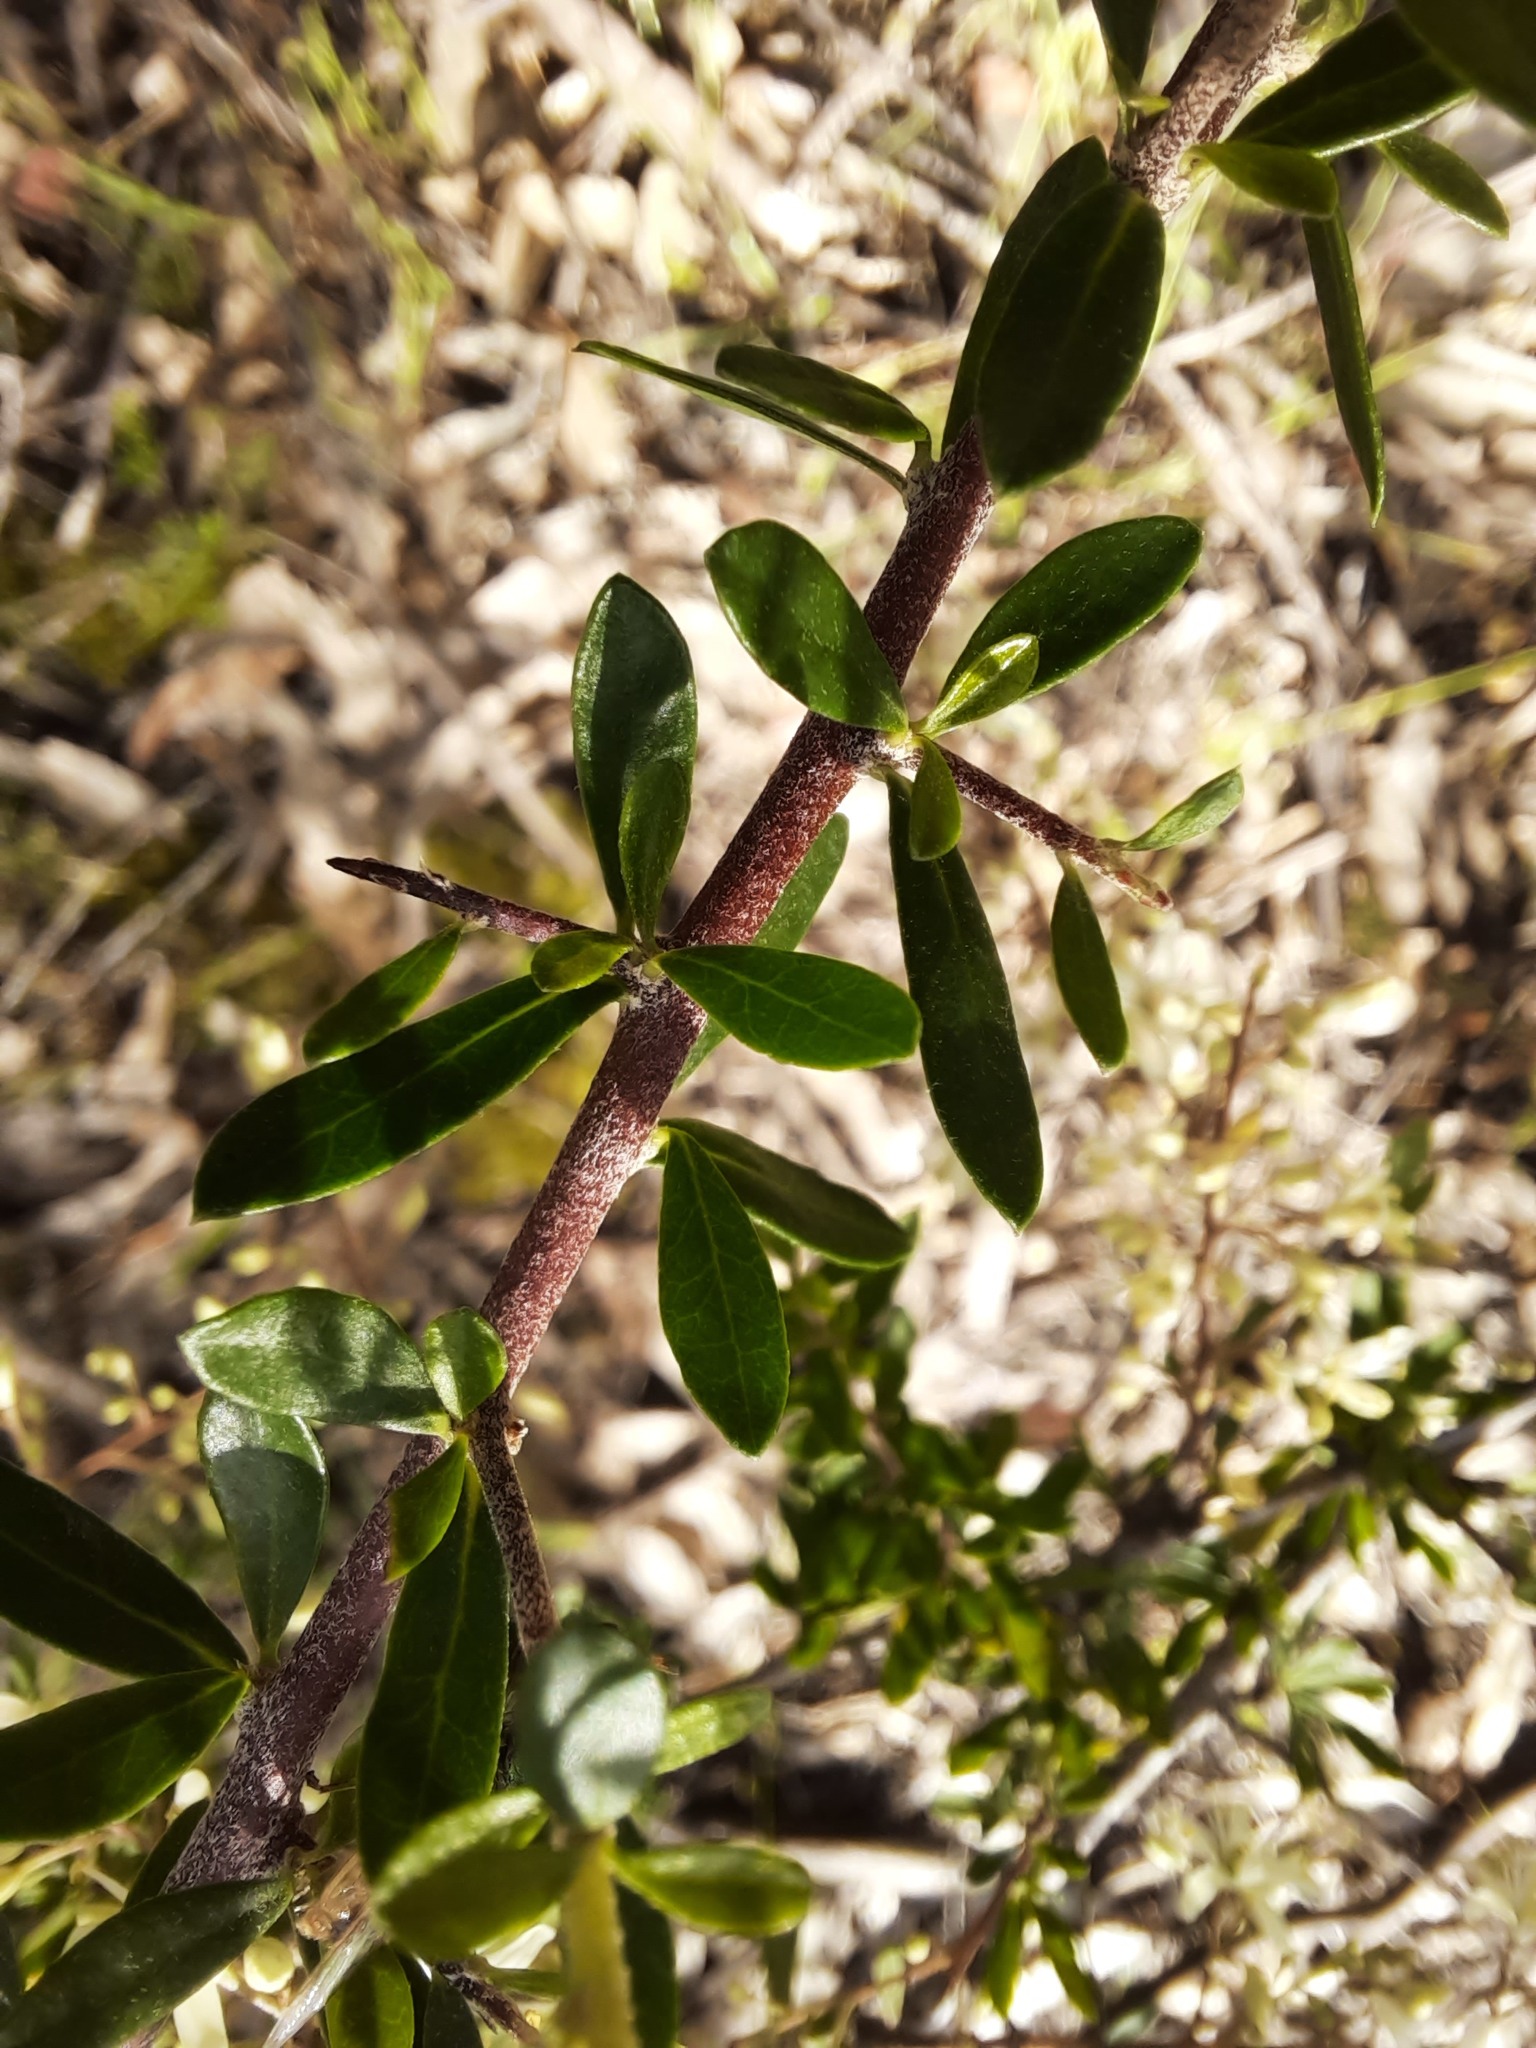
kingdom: Plantae
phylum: Tracheophyta
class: Magnoliopsida
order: Apiales
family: Pittosporaceae
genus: Bursaria
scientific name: Bursaria spinosa
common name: Australian blackthorn
